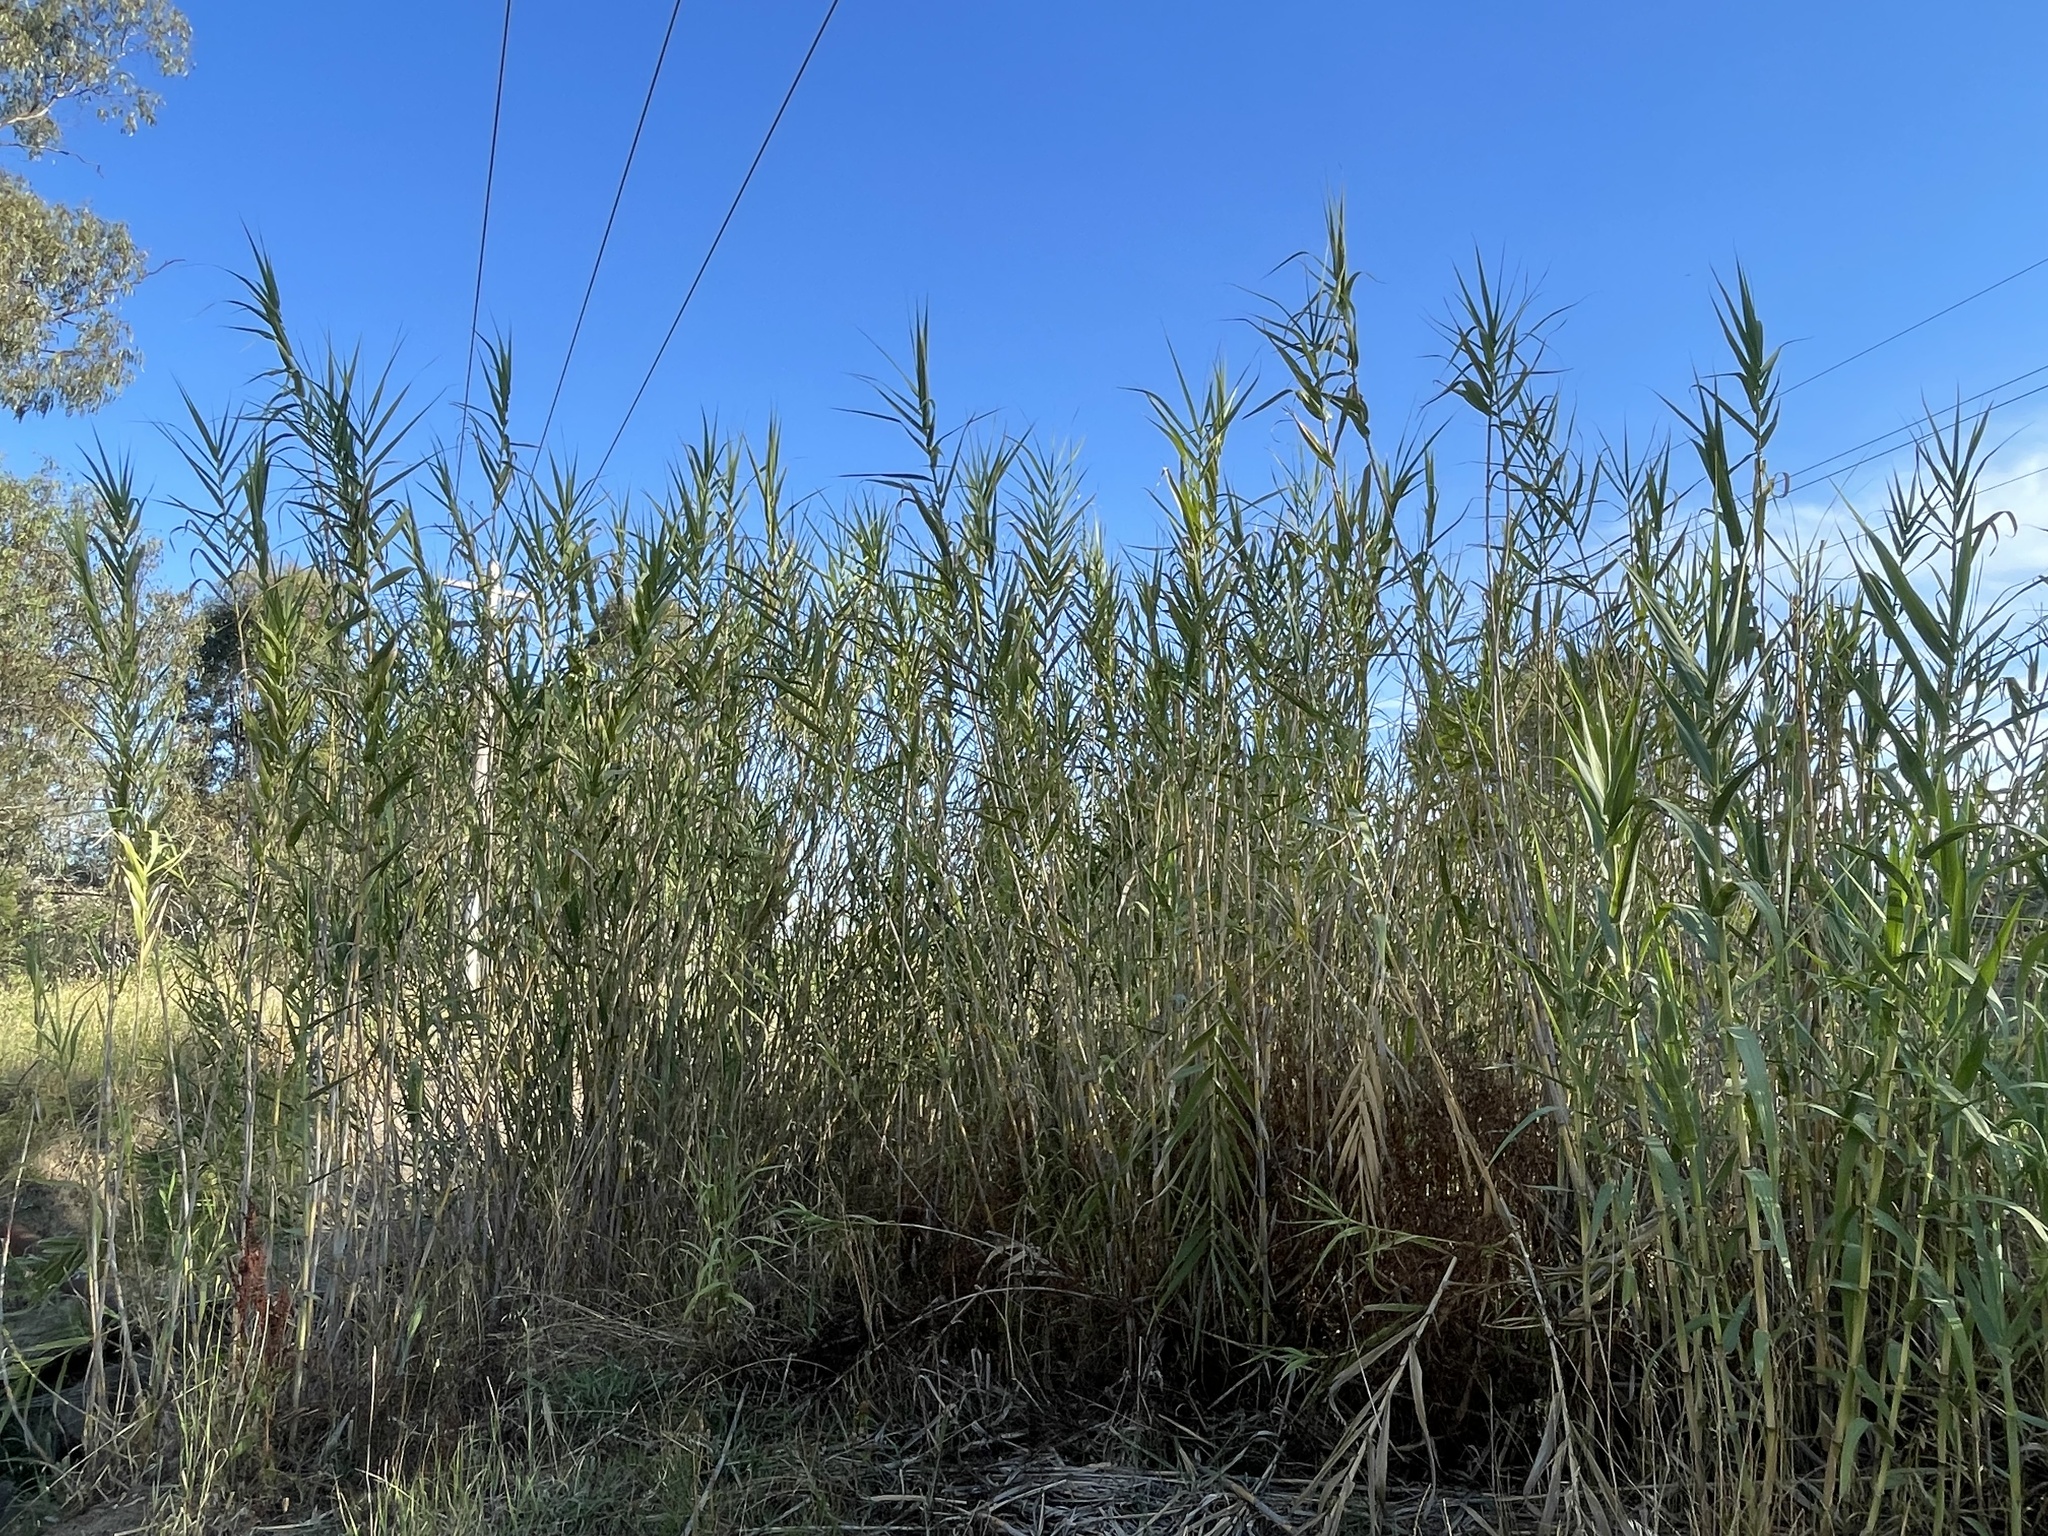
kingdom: Plantae
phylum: Tracheophyta
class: Liliopsida
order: Poales
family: Poaceae
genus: Arundo
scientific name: Arundo donax
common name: Giant reed
